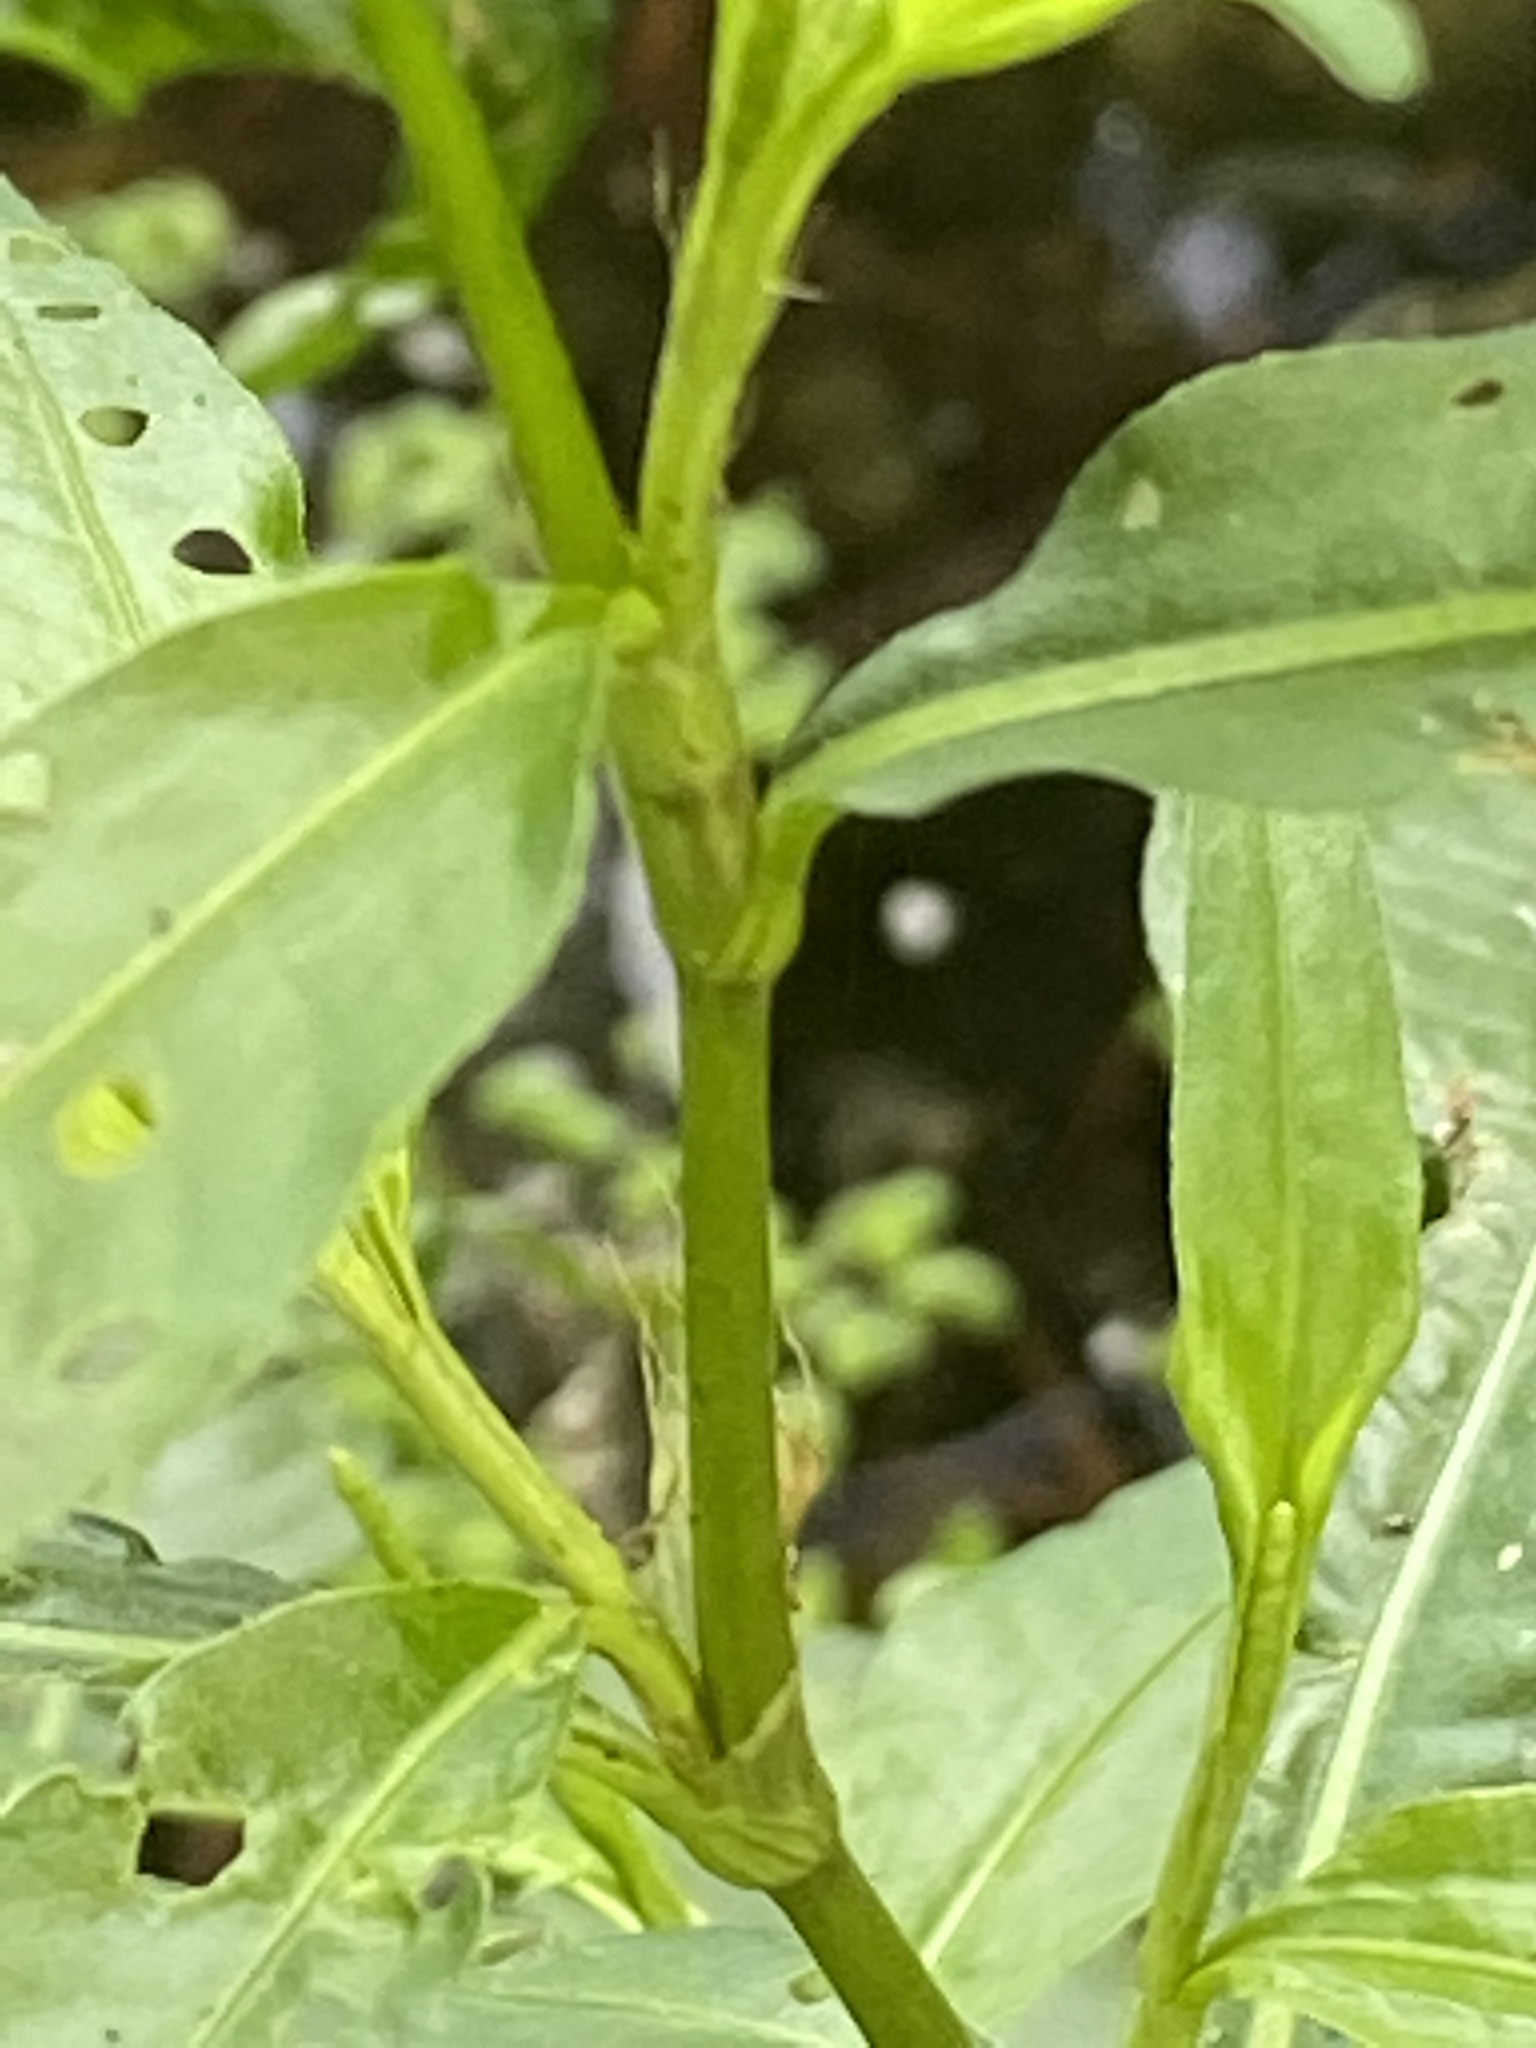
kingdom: Plantae
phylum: Tracheophyta
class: Magnoliopsida
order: Caryophyllales
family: Polygonaceae
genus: Persicaria
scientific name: Persicaria punctata
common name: Dotted smartweed
